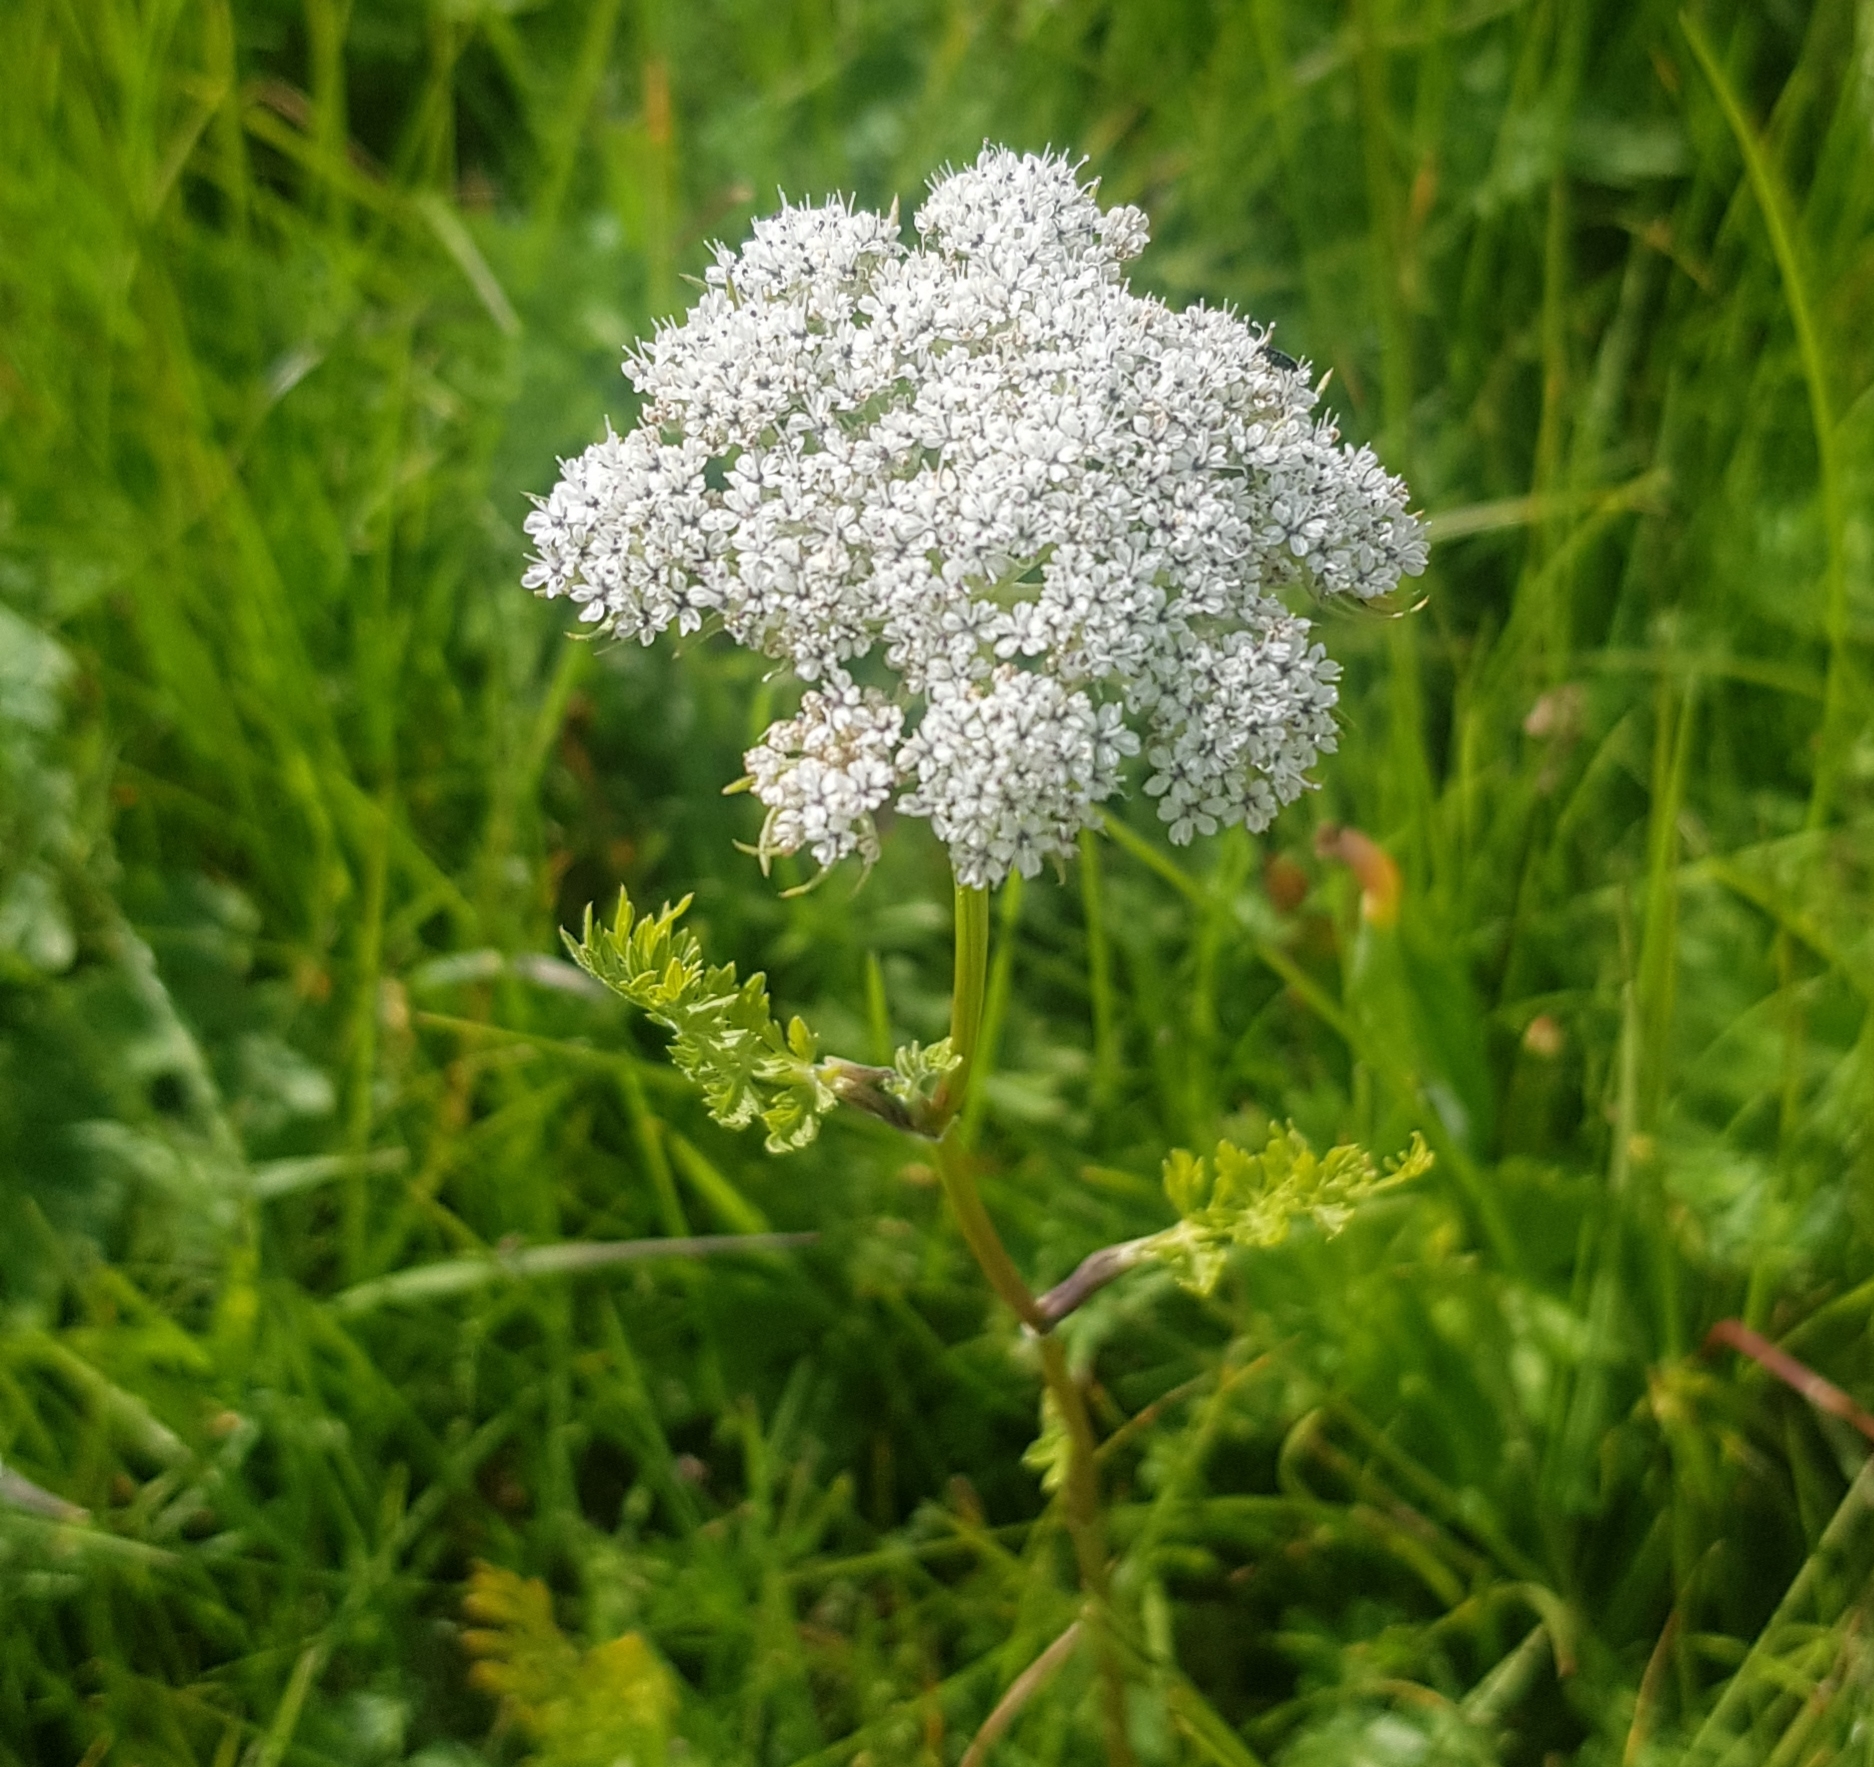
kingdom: Plantae
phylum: Tracheophyta
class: Magnoliopsida
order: Apiales
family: Apiaceae
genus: Seseli
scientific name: Seseli condensatum
